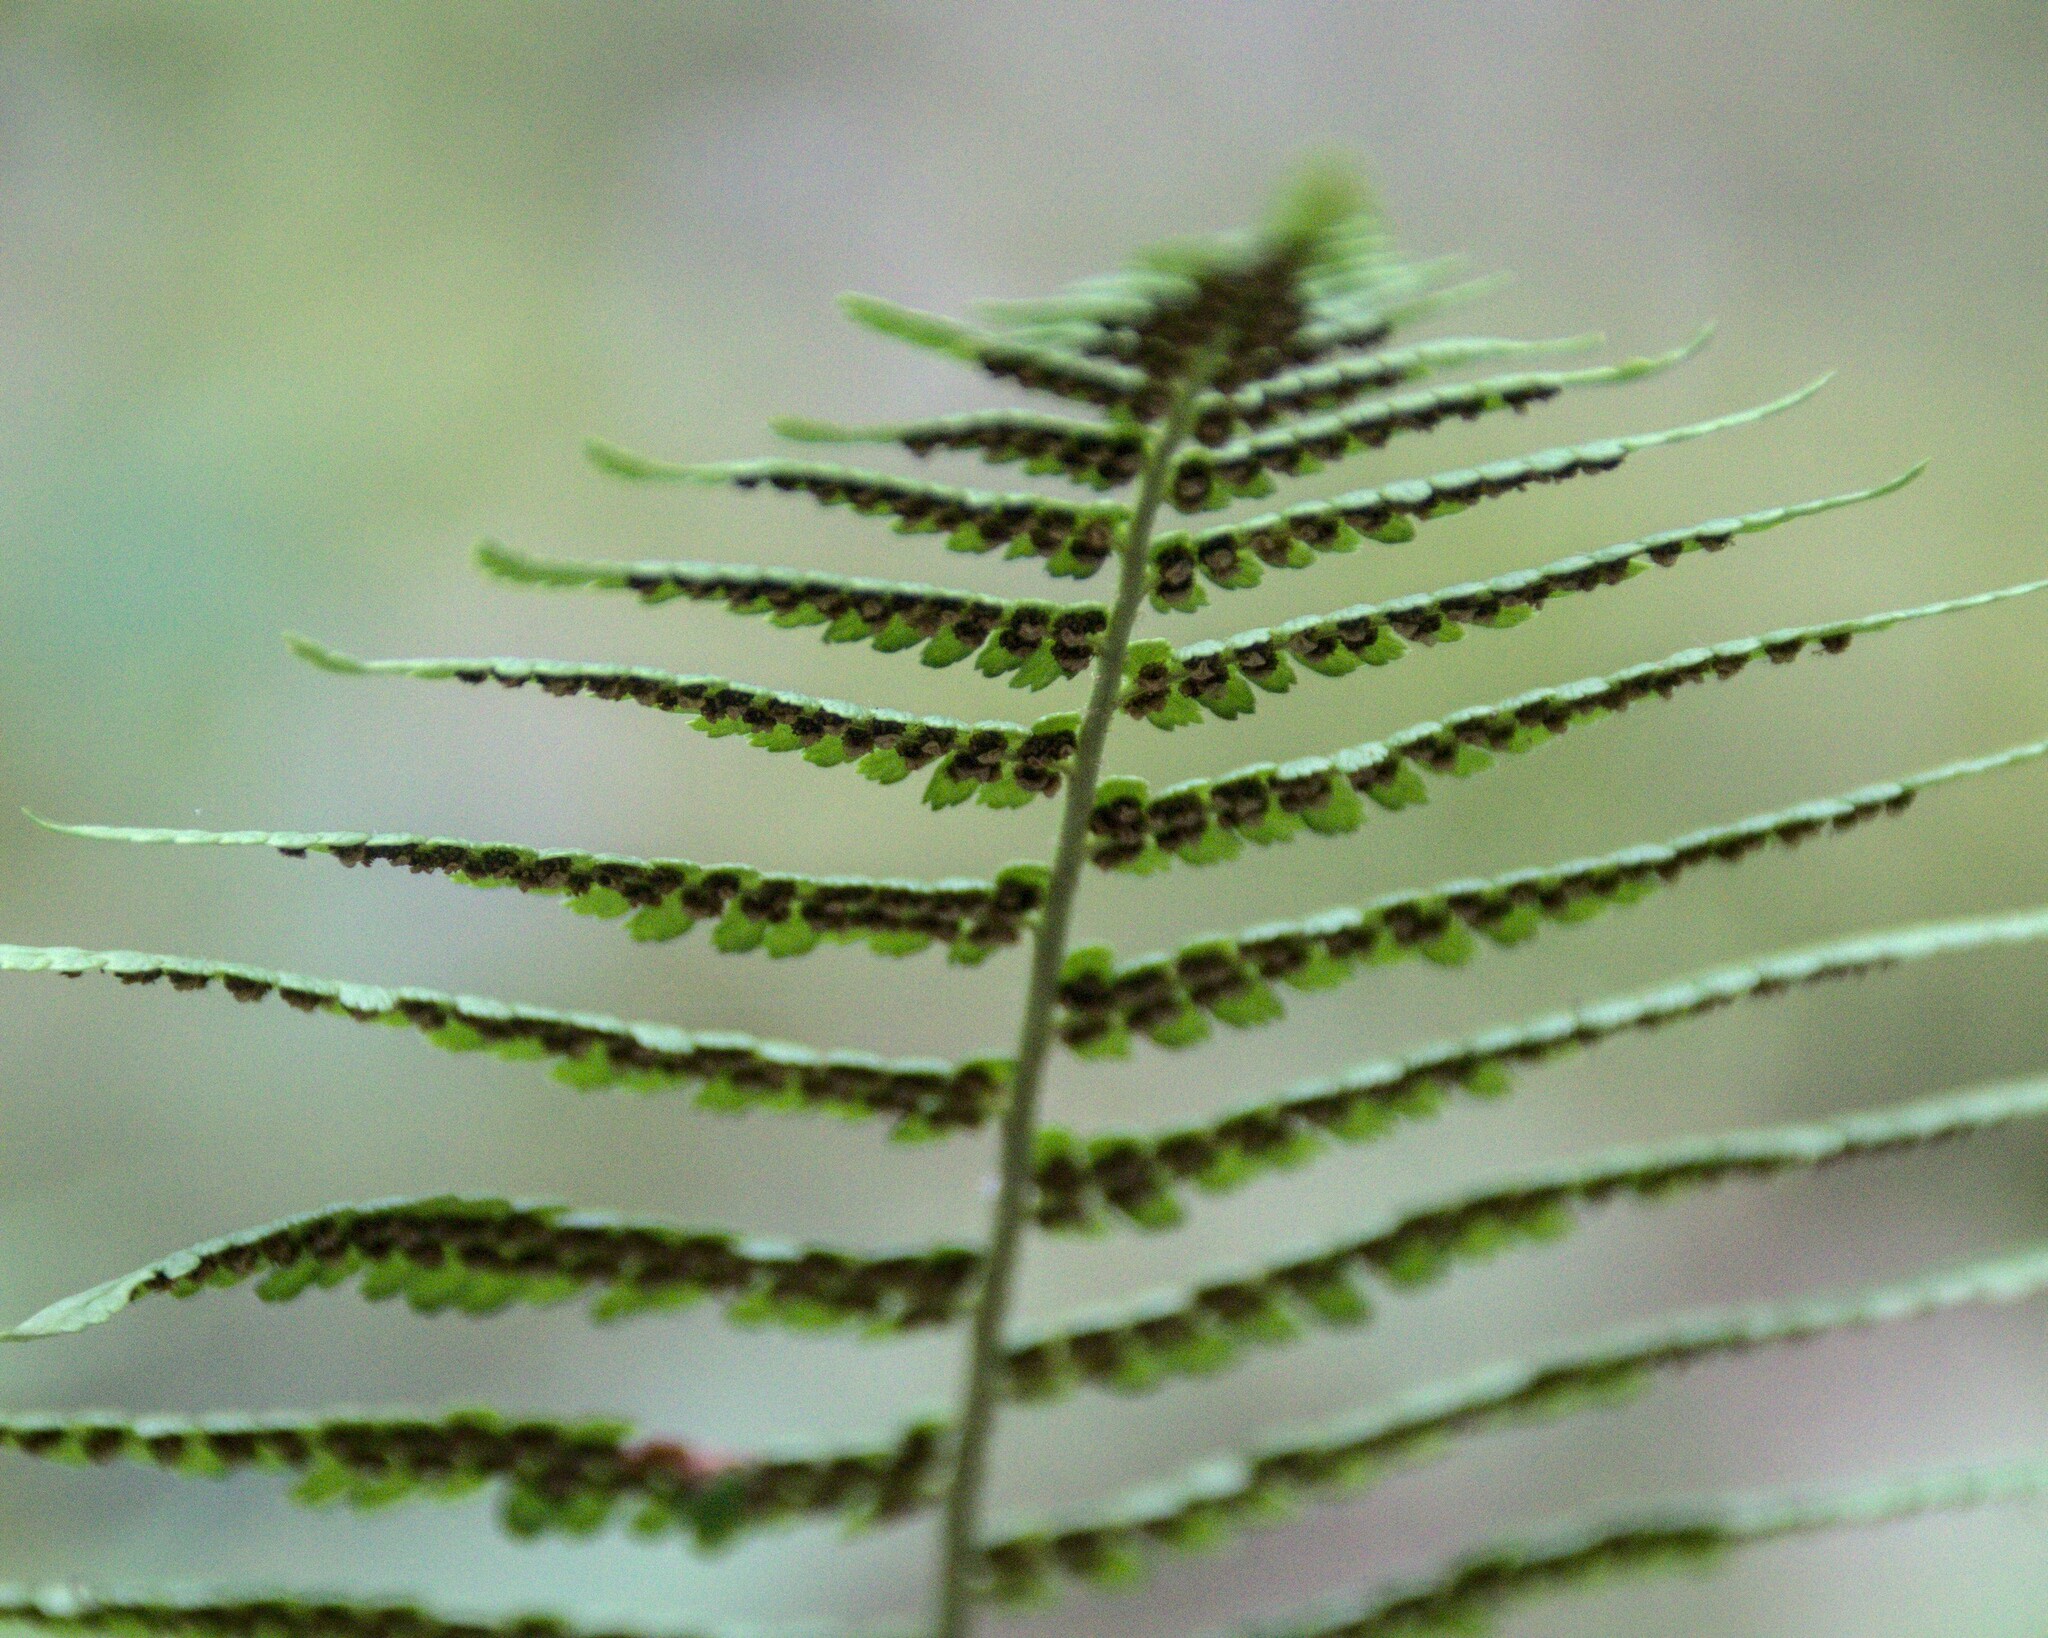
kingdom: Plantae
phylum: Tracheophyta
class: Polypodiopsida
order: Polypodiales
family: Dryopteridaceae
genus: Dryopteris
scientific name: Dryopteris filix-mas
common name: Male fern
